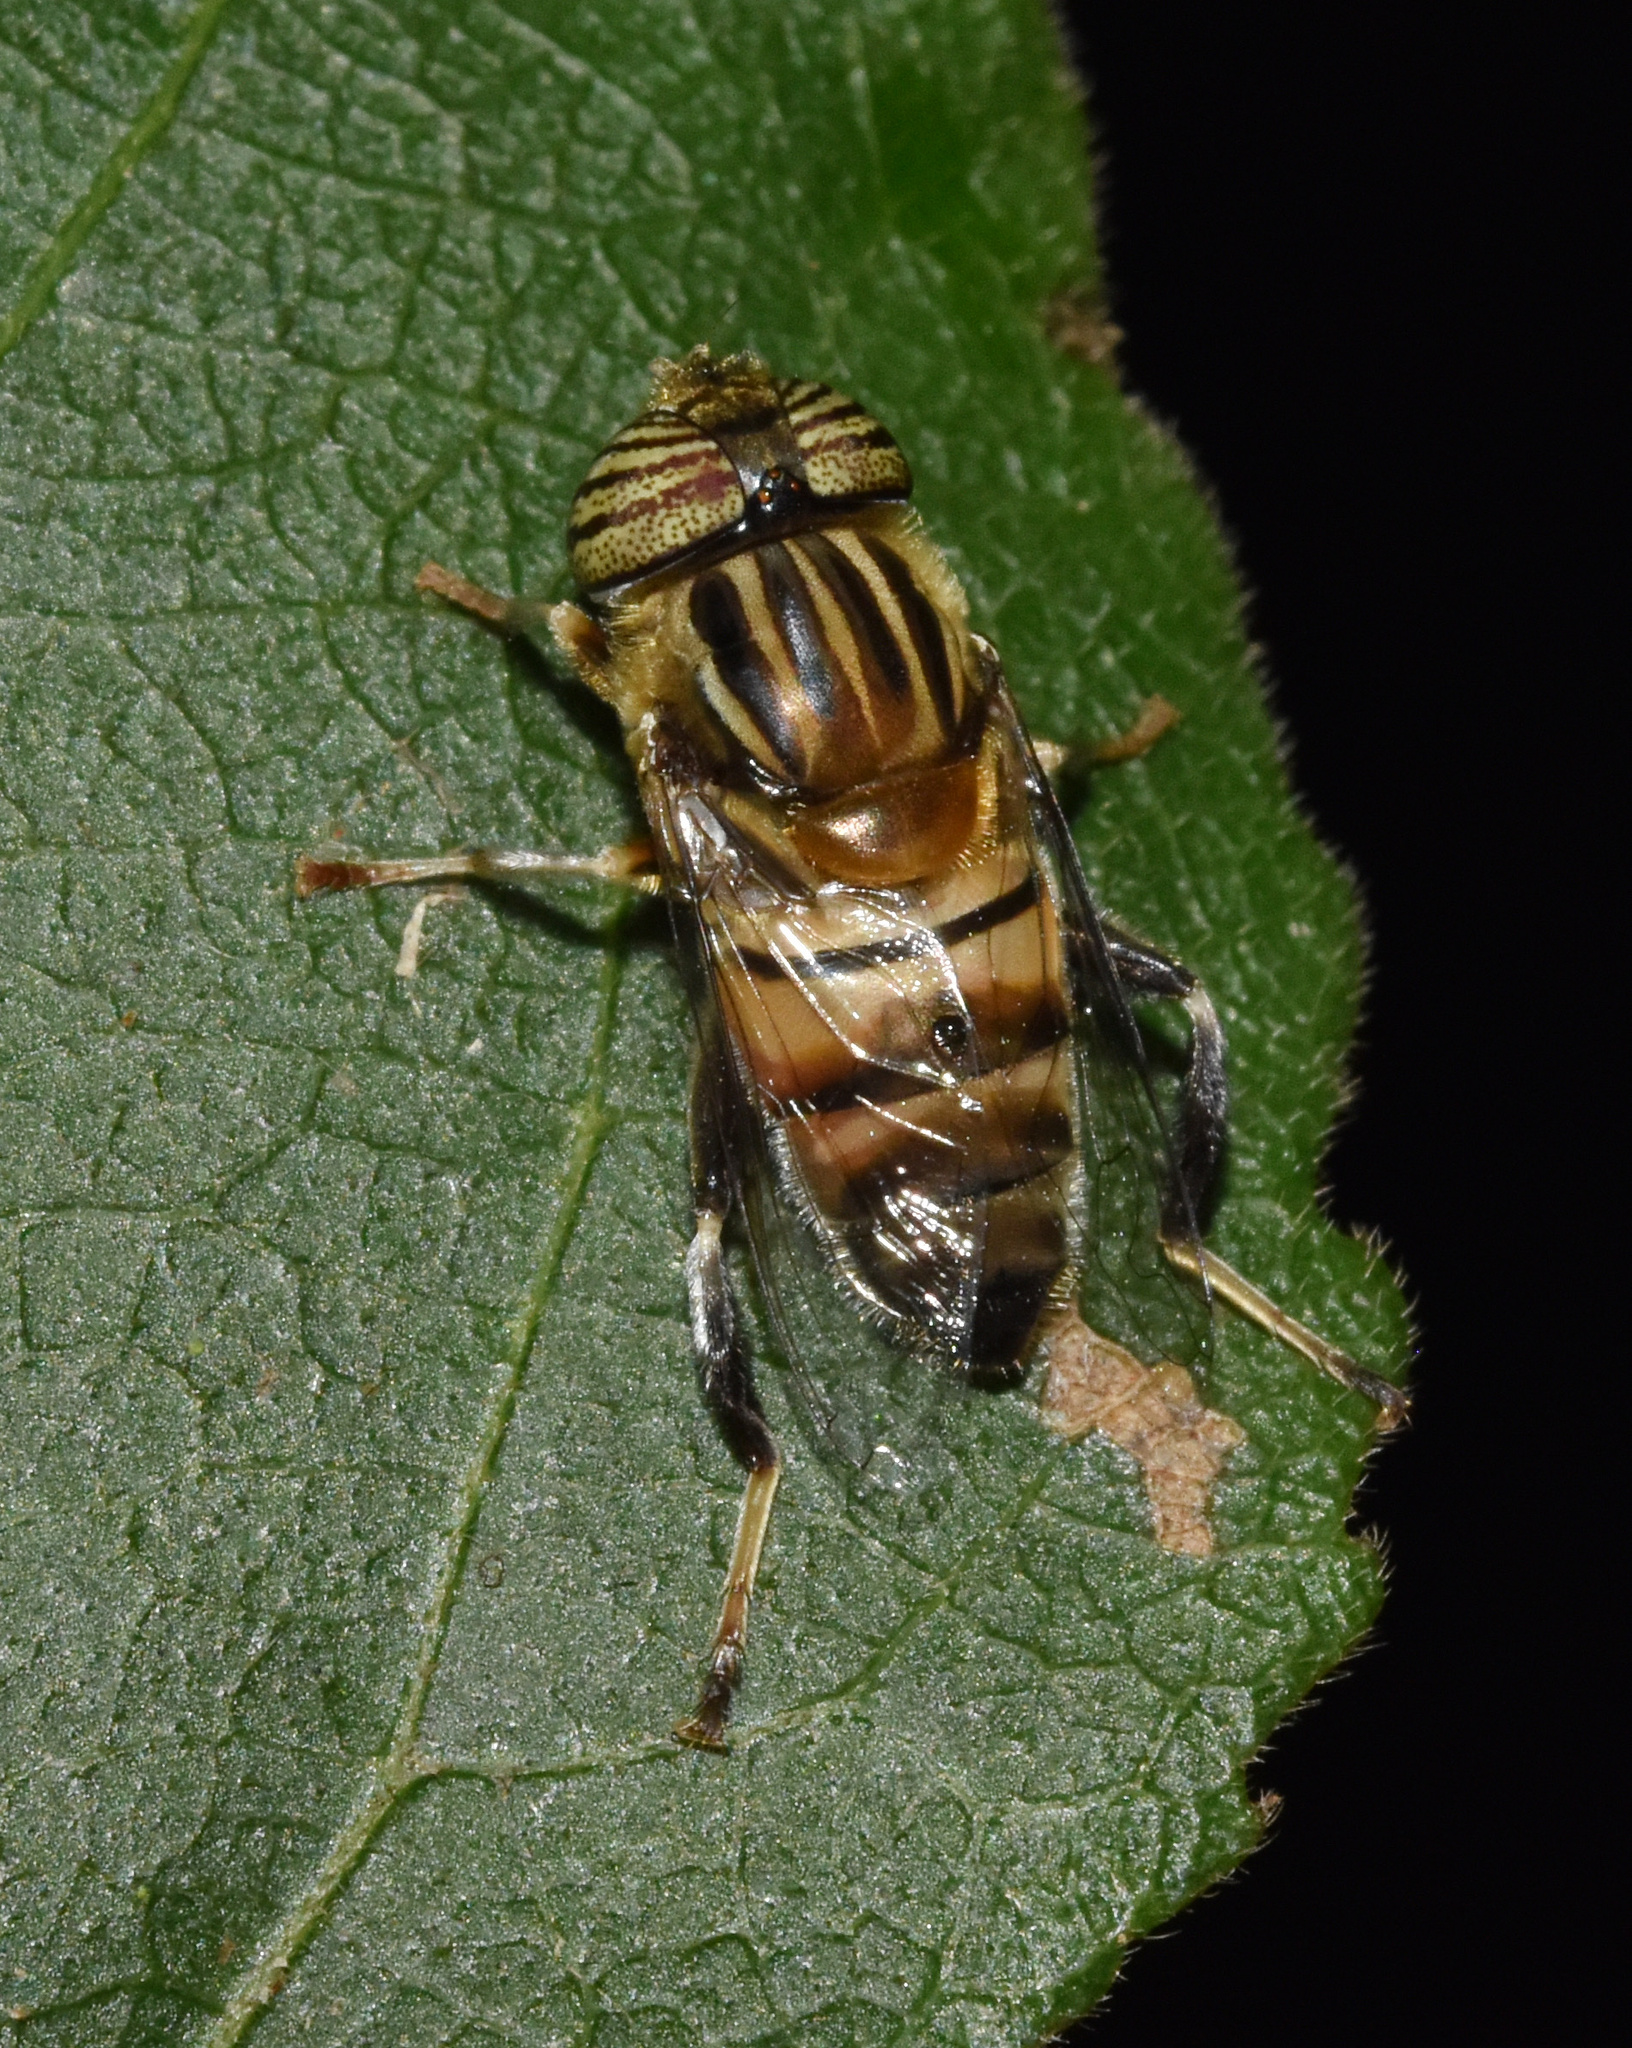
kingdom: Animalia
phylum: Arthropoda
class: Insecta
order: Diptera
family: Syrphidae
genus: Eristalinus
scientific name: Eristalinus quinquelineatus
